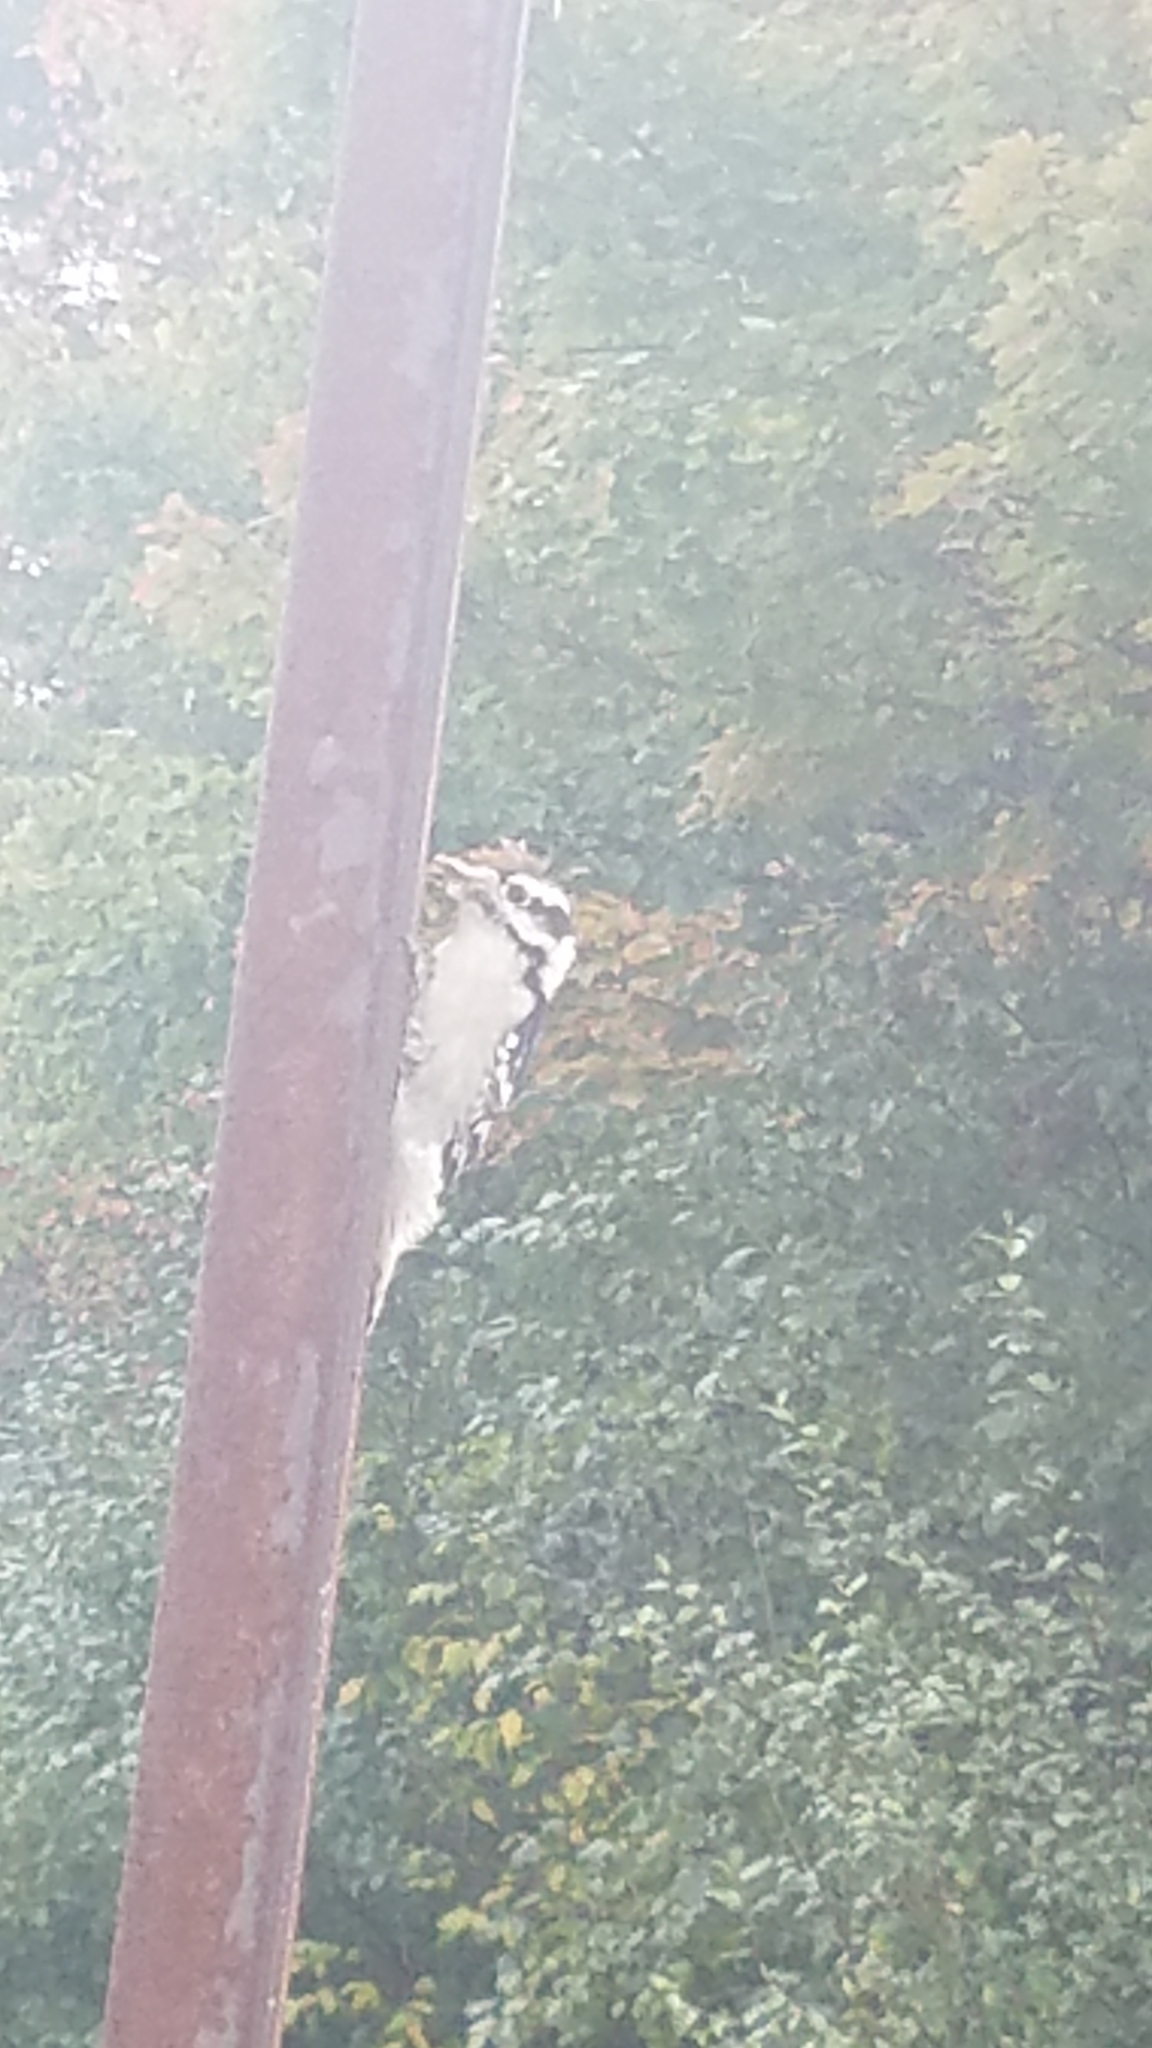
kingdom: Animalia
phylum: Chordata
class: Aves
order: Piciformes
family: Picidae
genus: Dryobates
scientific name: Dryobates pubescens
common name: Downy woodpecker
